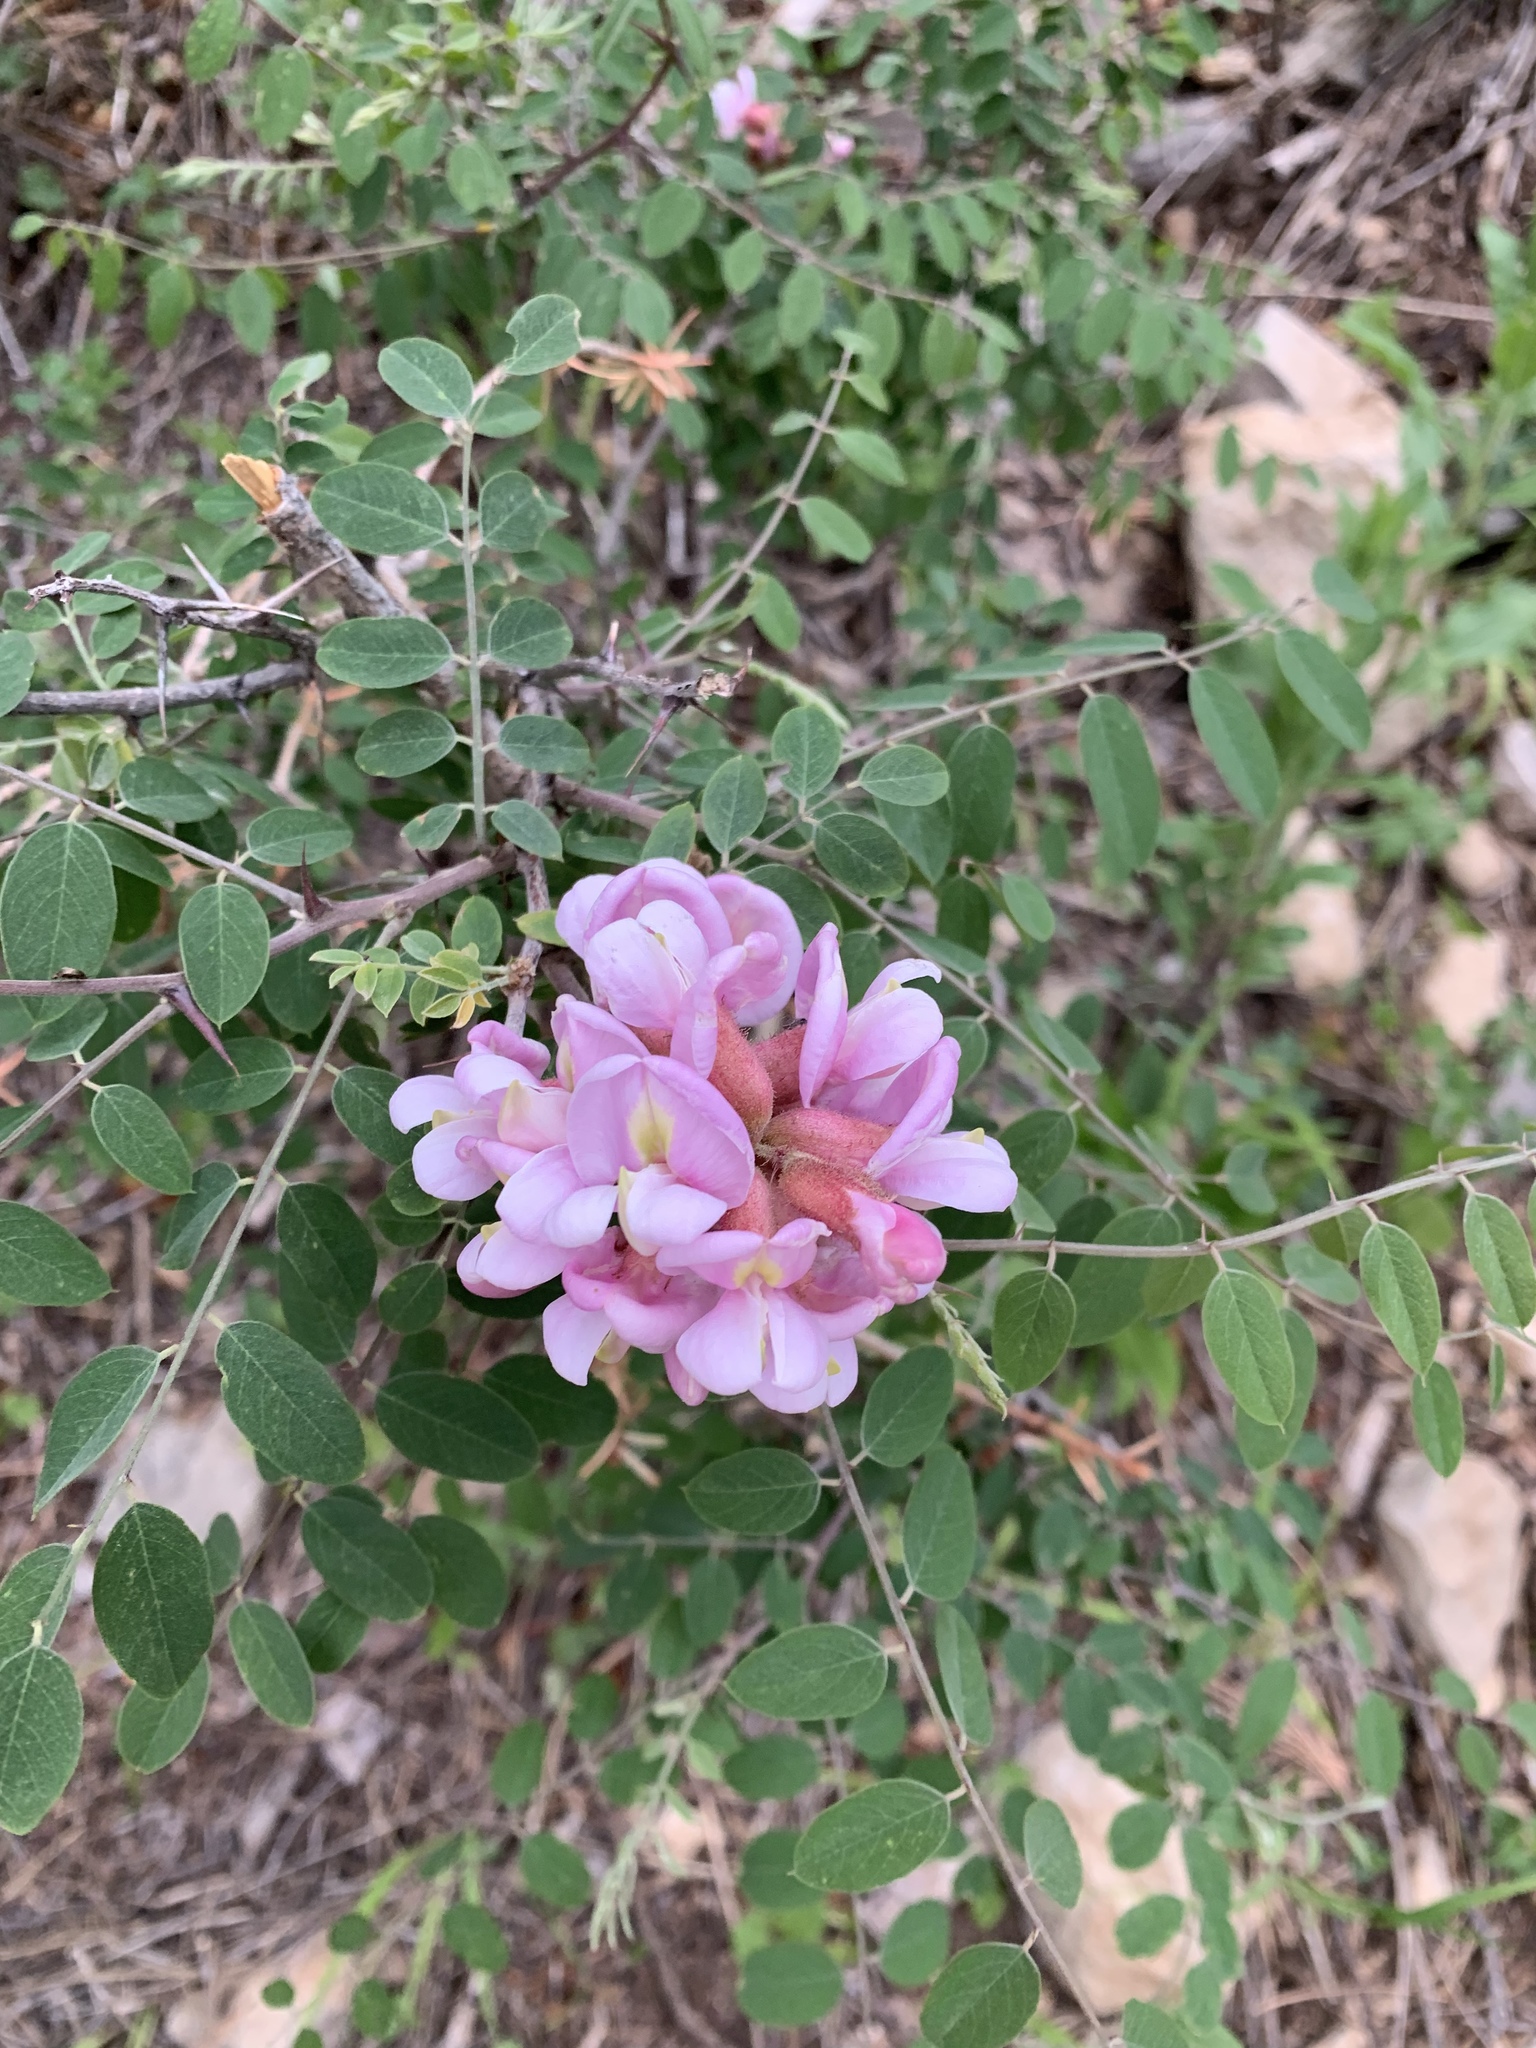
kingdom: Plantae
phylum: Tracheophyta
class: Magnoliopsida
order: Fabales
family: Fabaceae
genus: Robinia
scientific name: Robinia neomexicana
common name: New mexico locust
